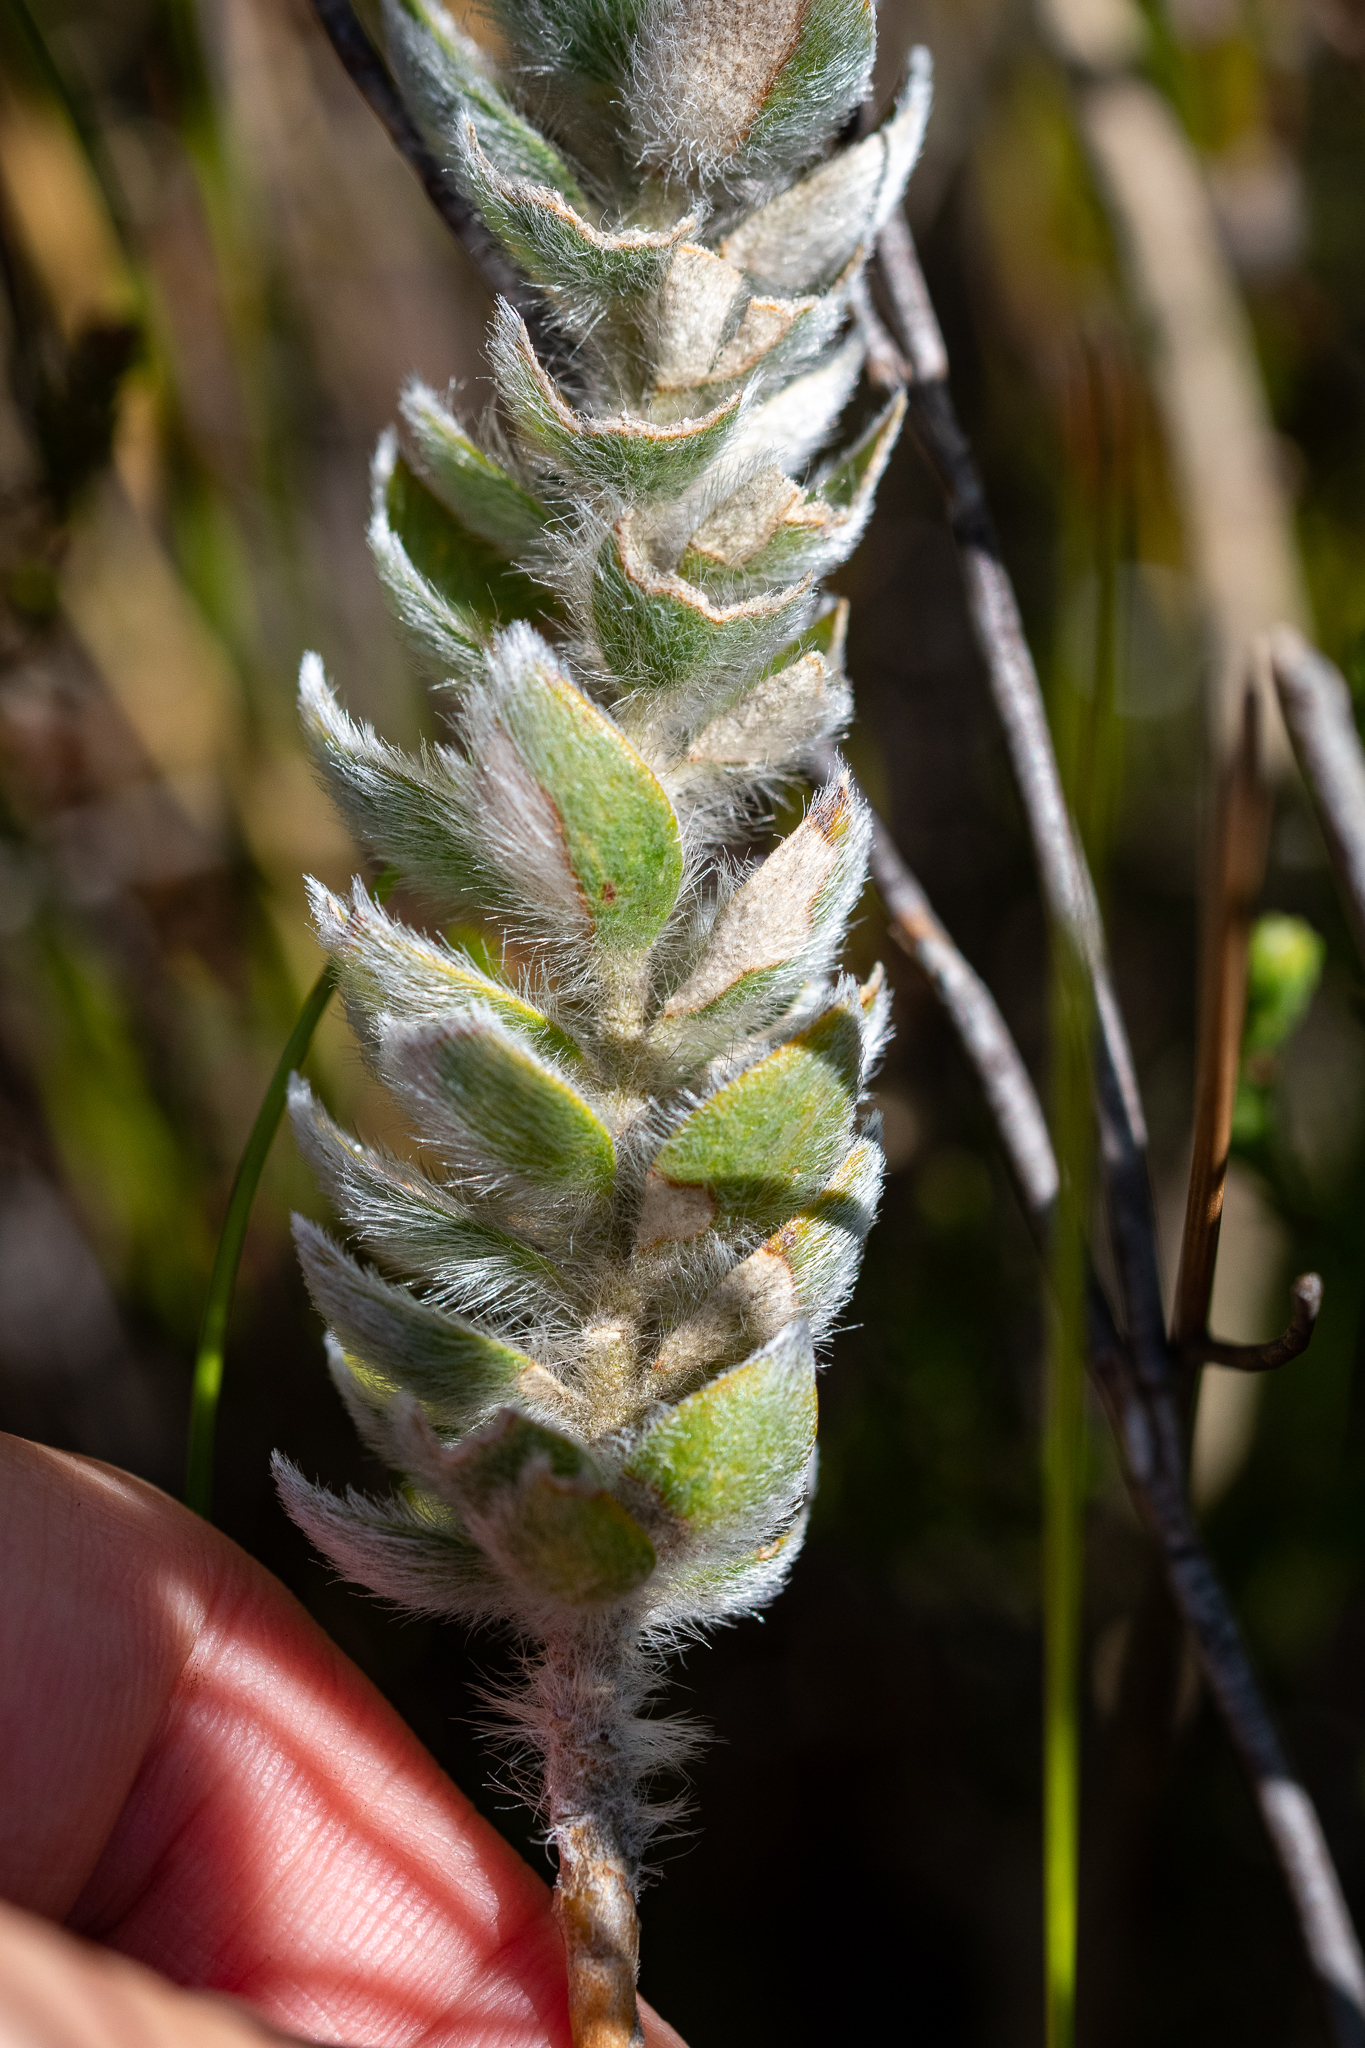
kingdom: Plantae
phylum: Tracheophyta
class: Magnoliopsida
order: Fabales
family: Fabaceae
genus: Liparia
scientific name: Liparia vestita
